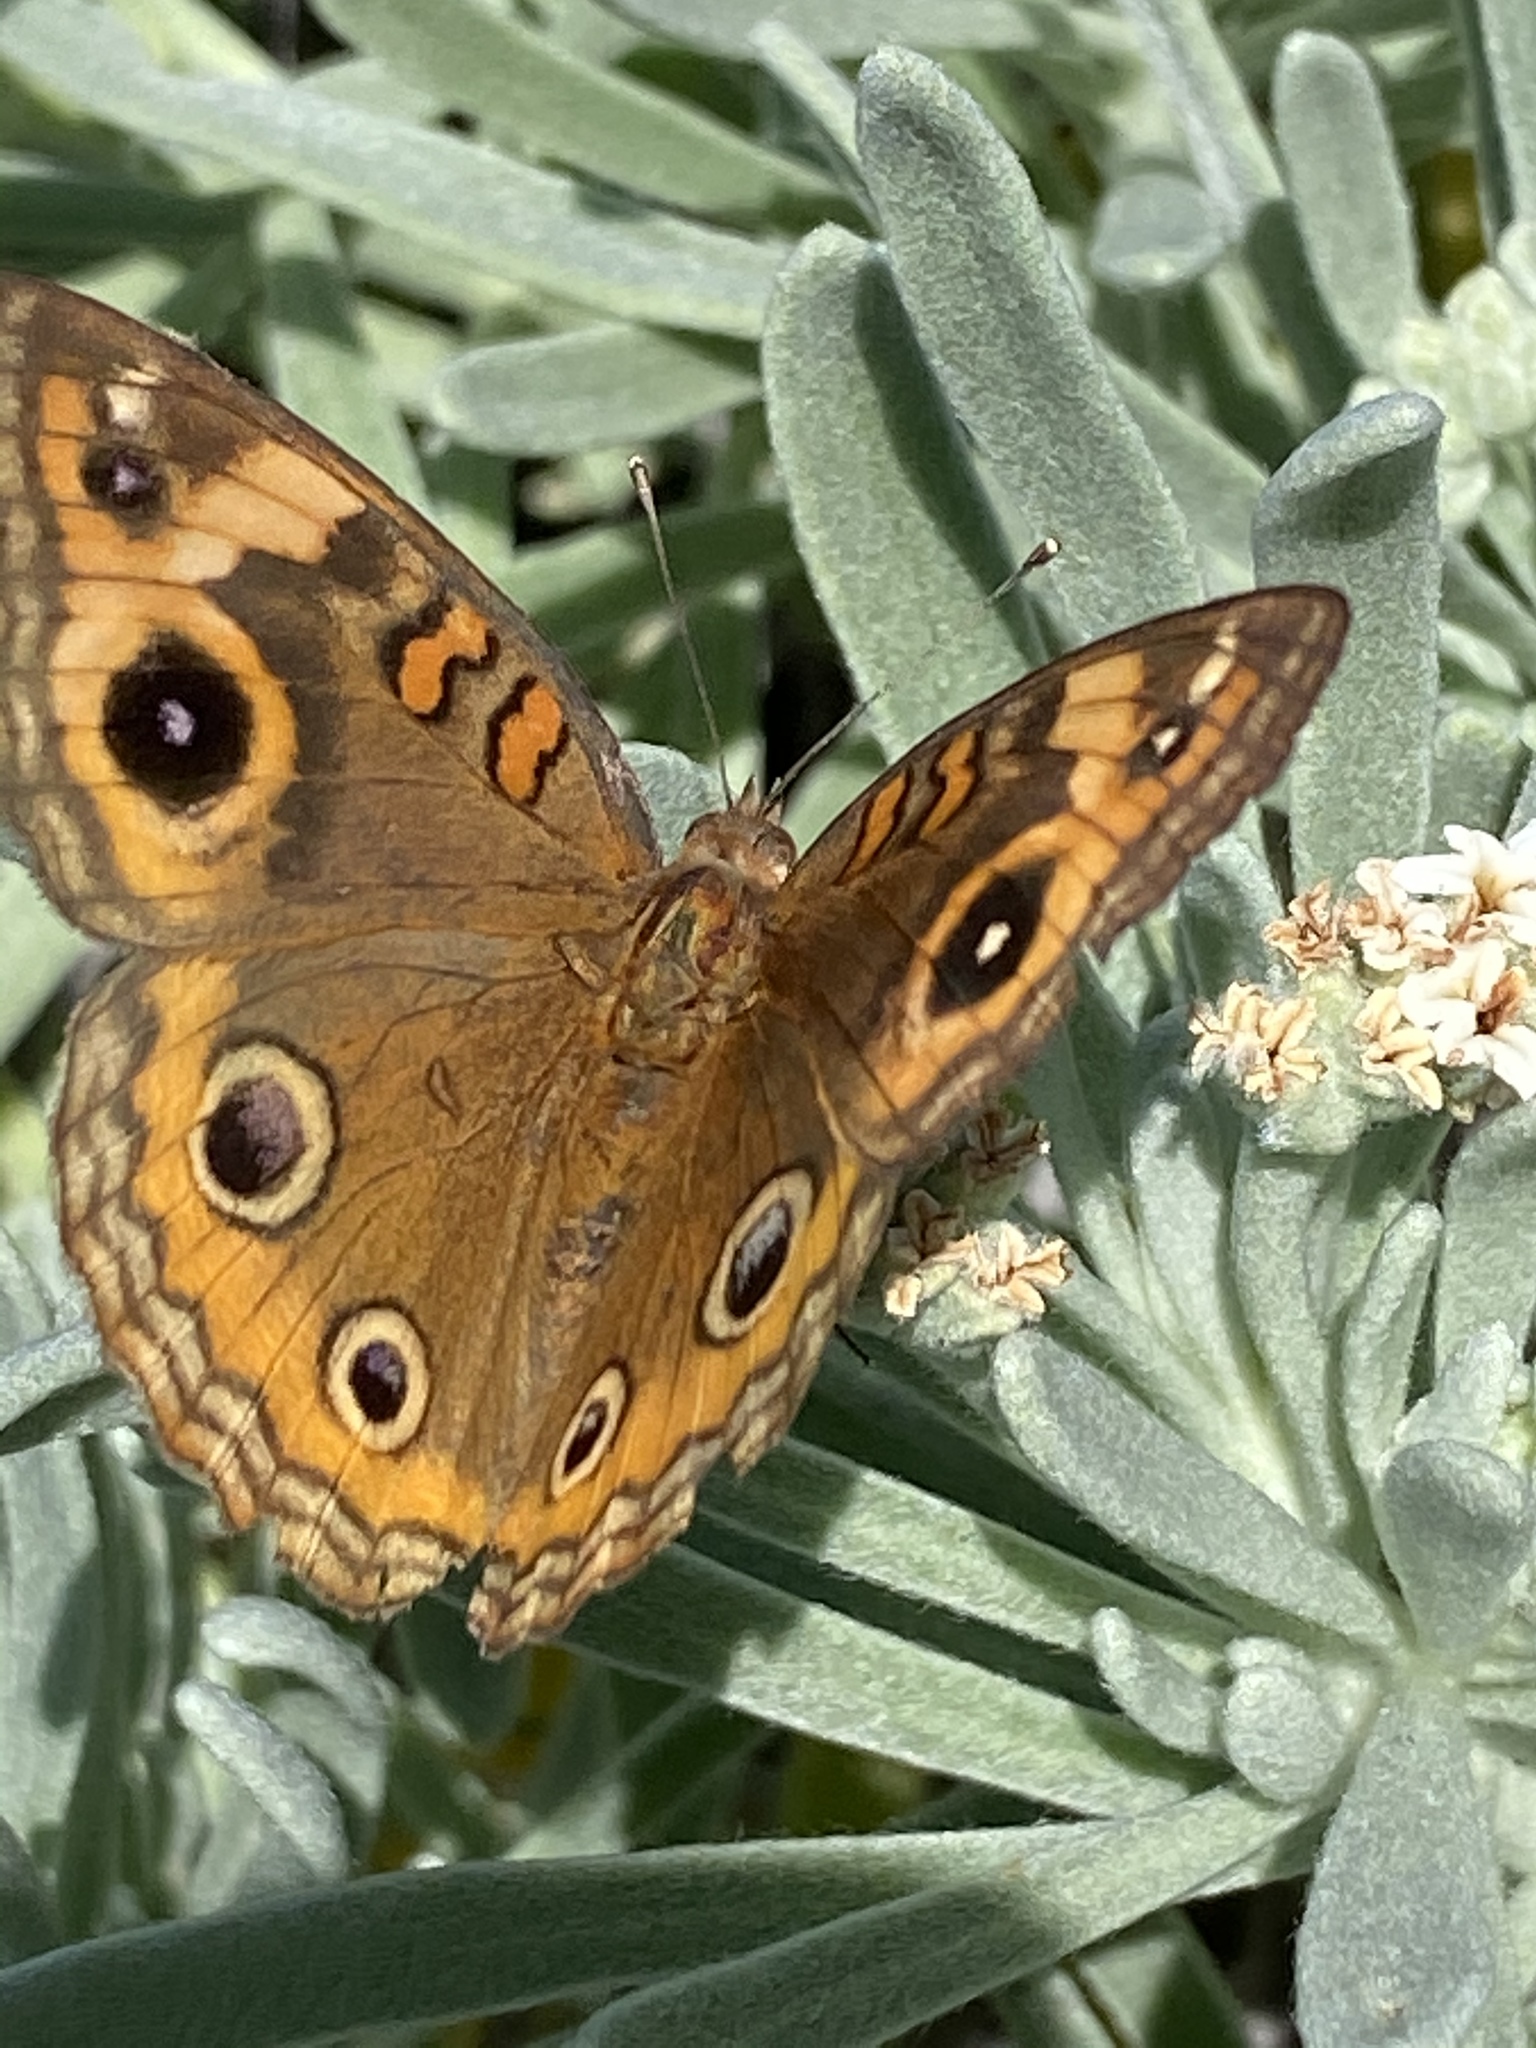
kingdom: Animalia
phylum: Arthropoda
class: Insecta
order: Lepidoptera
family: Nymphalidae
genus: Junonia
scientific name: Junonia neildi
